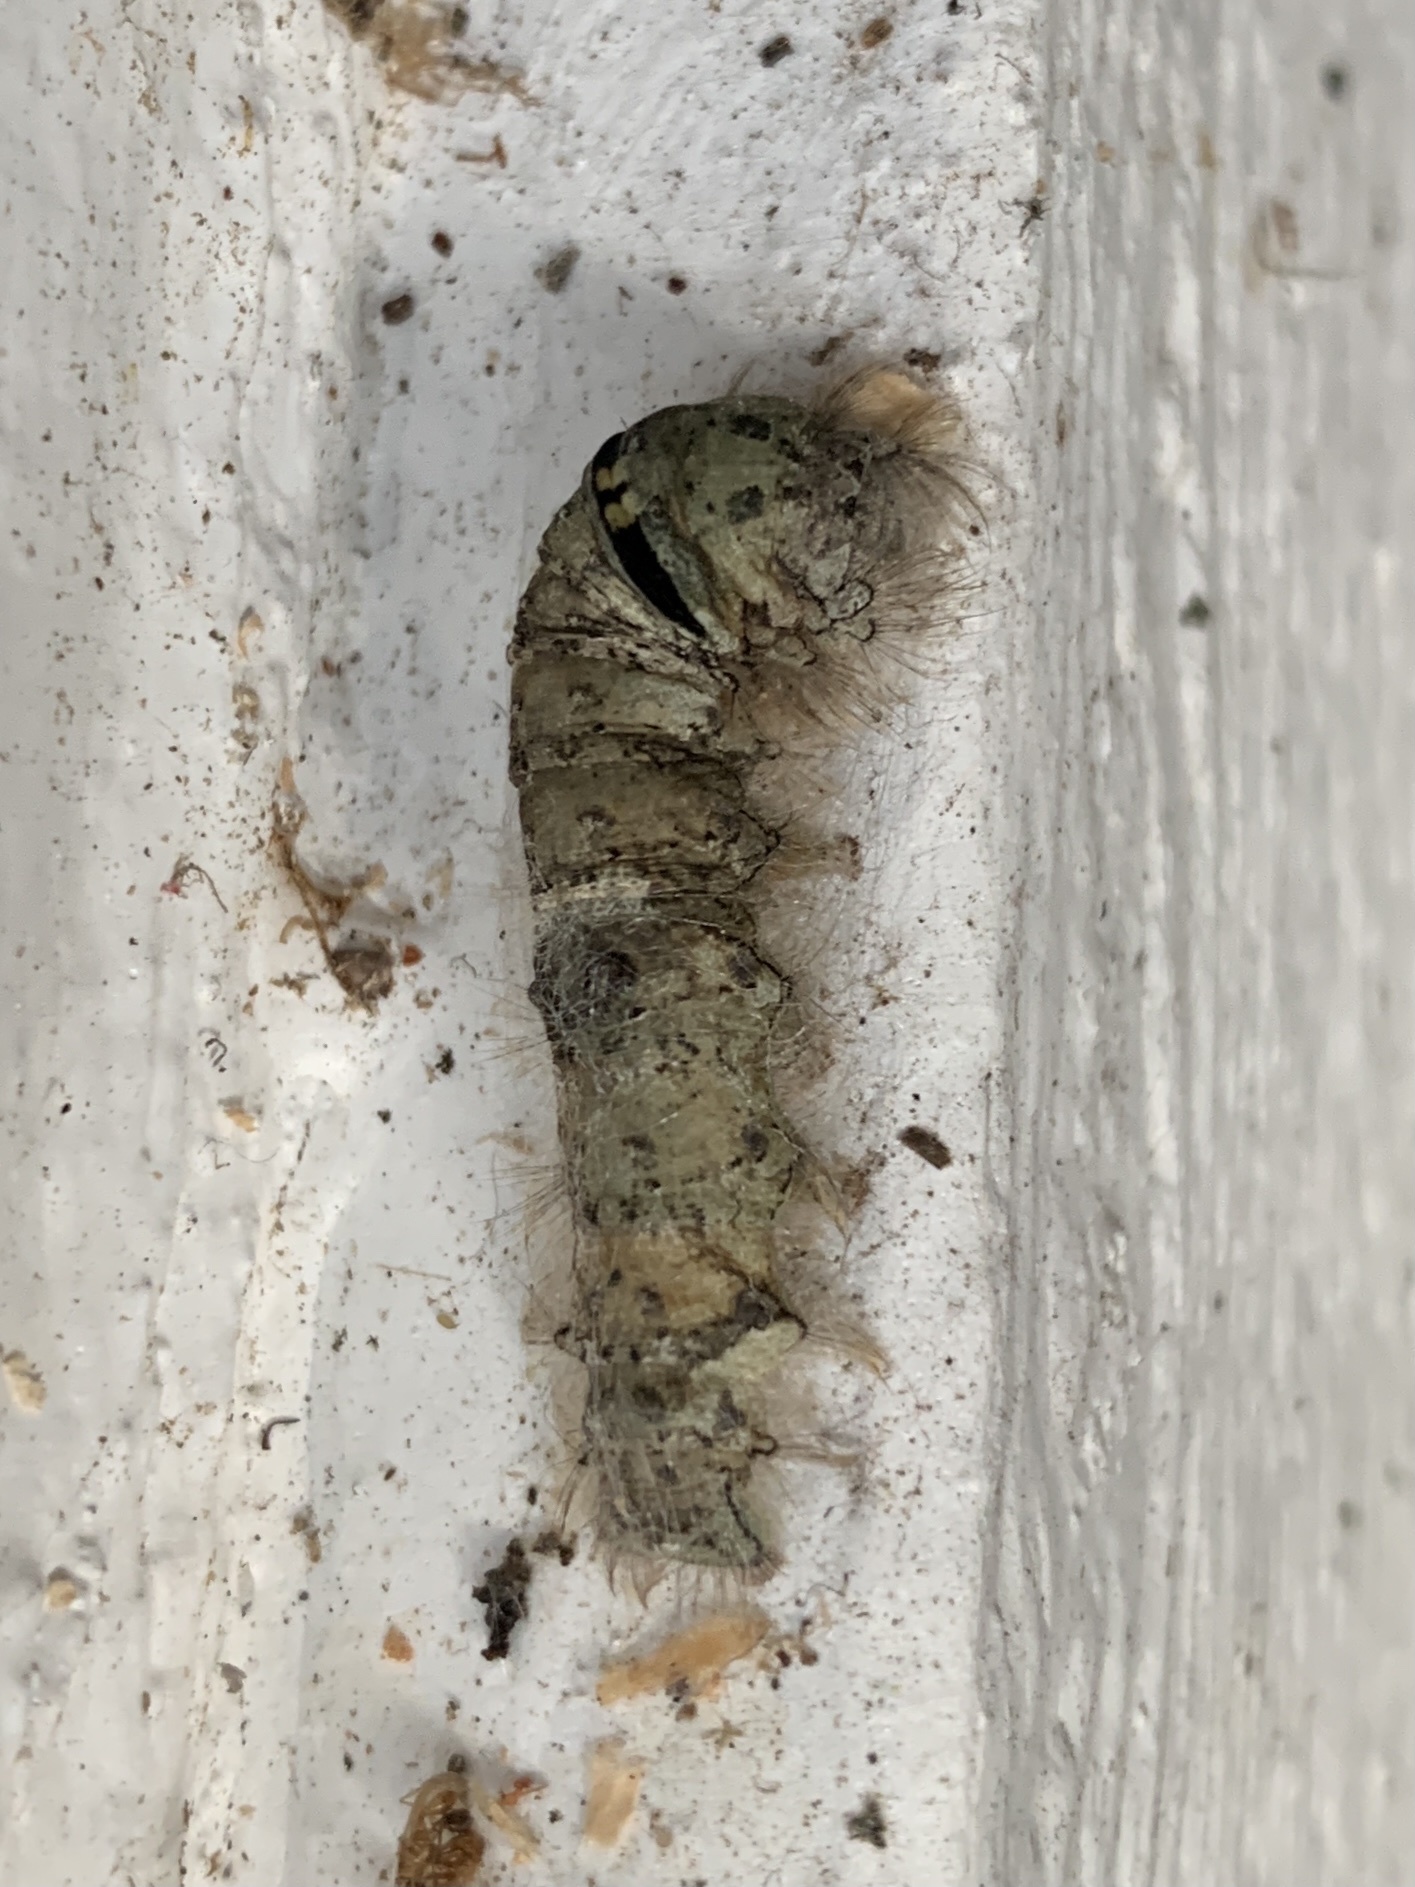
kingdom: Animalia
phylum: Arthropoda
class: Insecta
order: Lepidoptera
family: Lasiocampidae
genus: Artace
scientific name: Artace cribrarius
